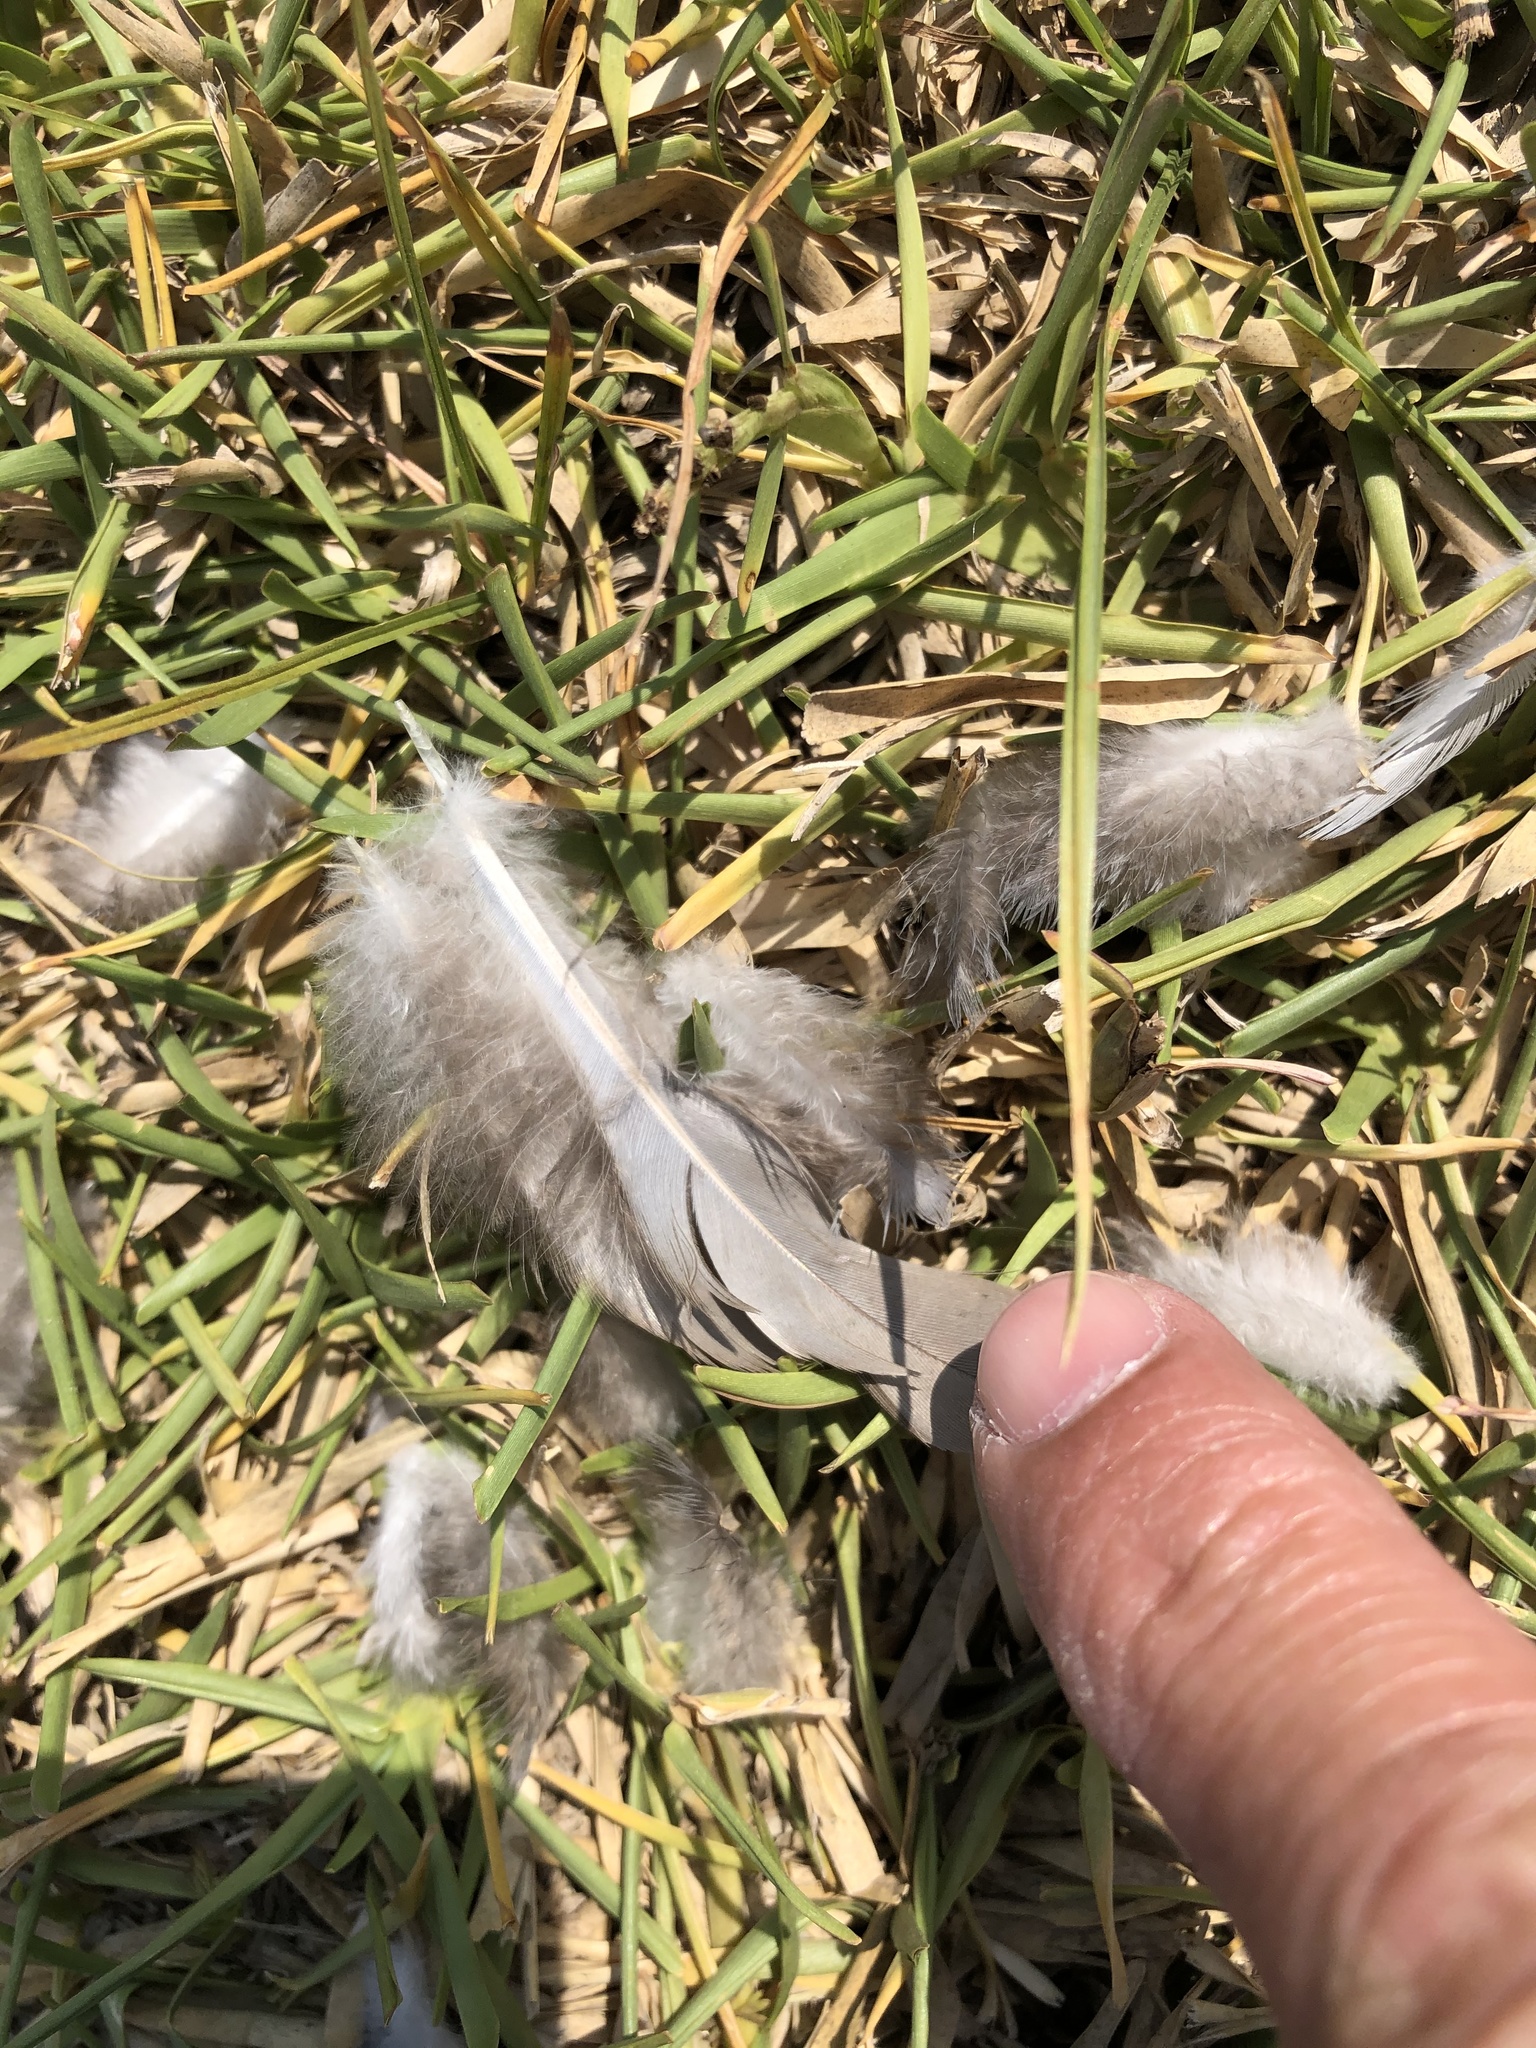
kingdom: Animalia
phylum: Chordata
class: Aves
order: Columbiformes
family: Columbidae
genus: Zenaida
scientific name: Zenaida meloda
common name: West peruvian dove
